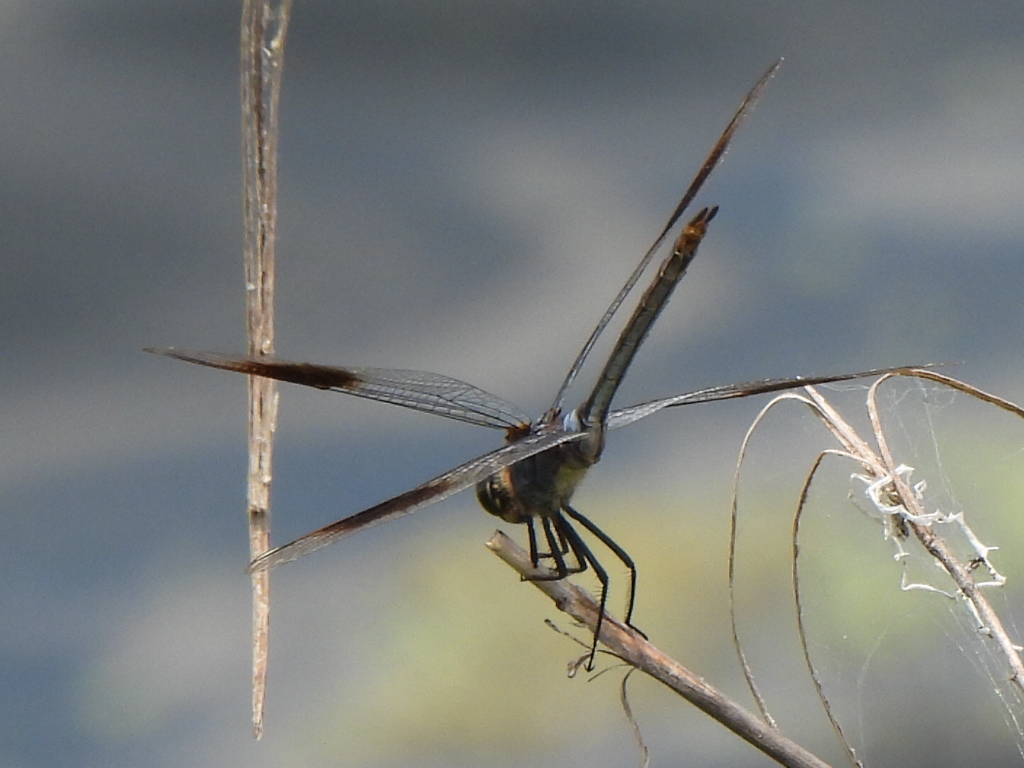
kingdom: Animalia
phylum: Arthropoda
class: Insecta
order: Odonata
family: Libellulidae
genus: Brachymesia
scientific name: Brachymesia gravida
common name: Four-spotted pennant
